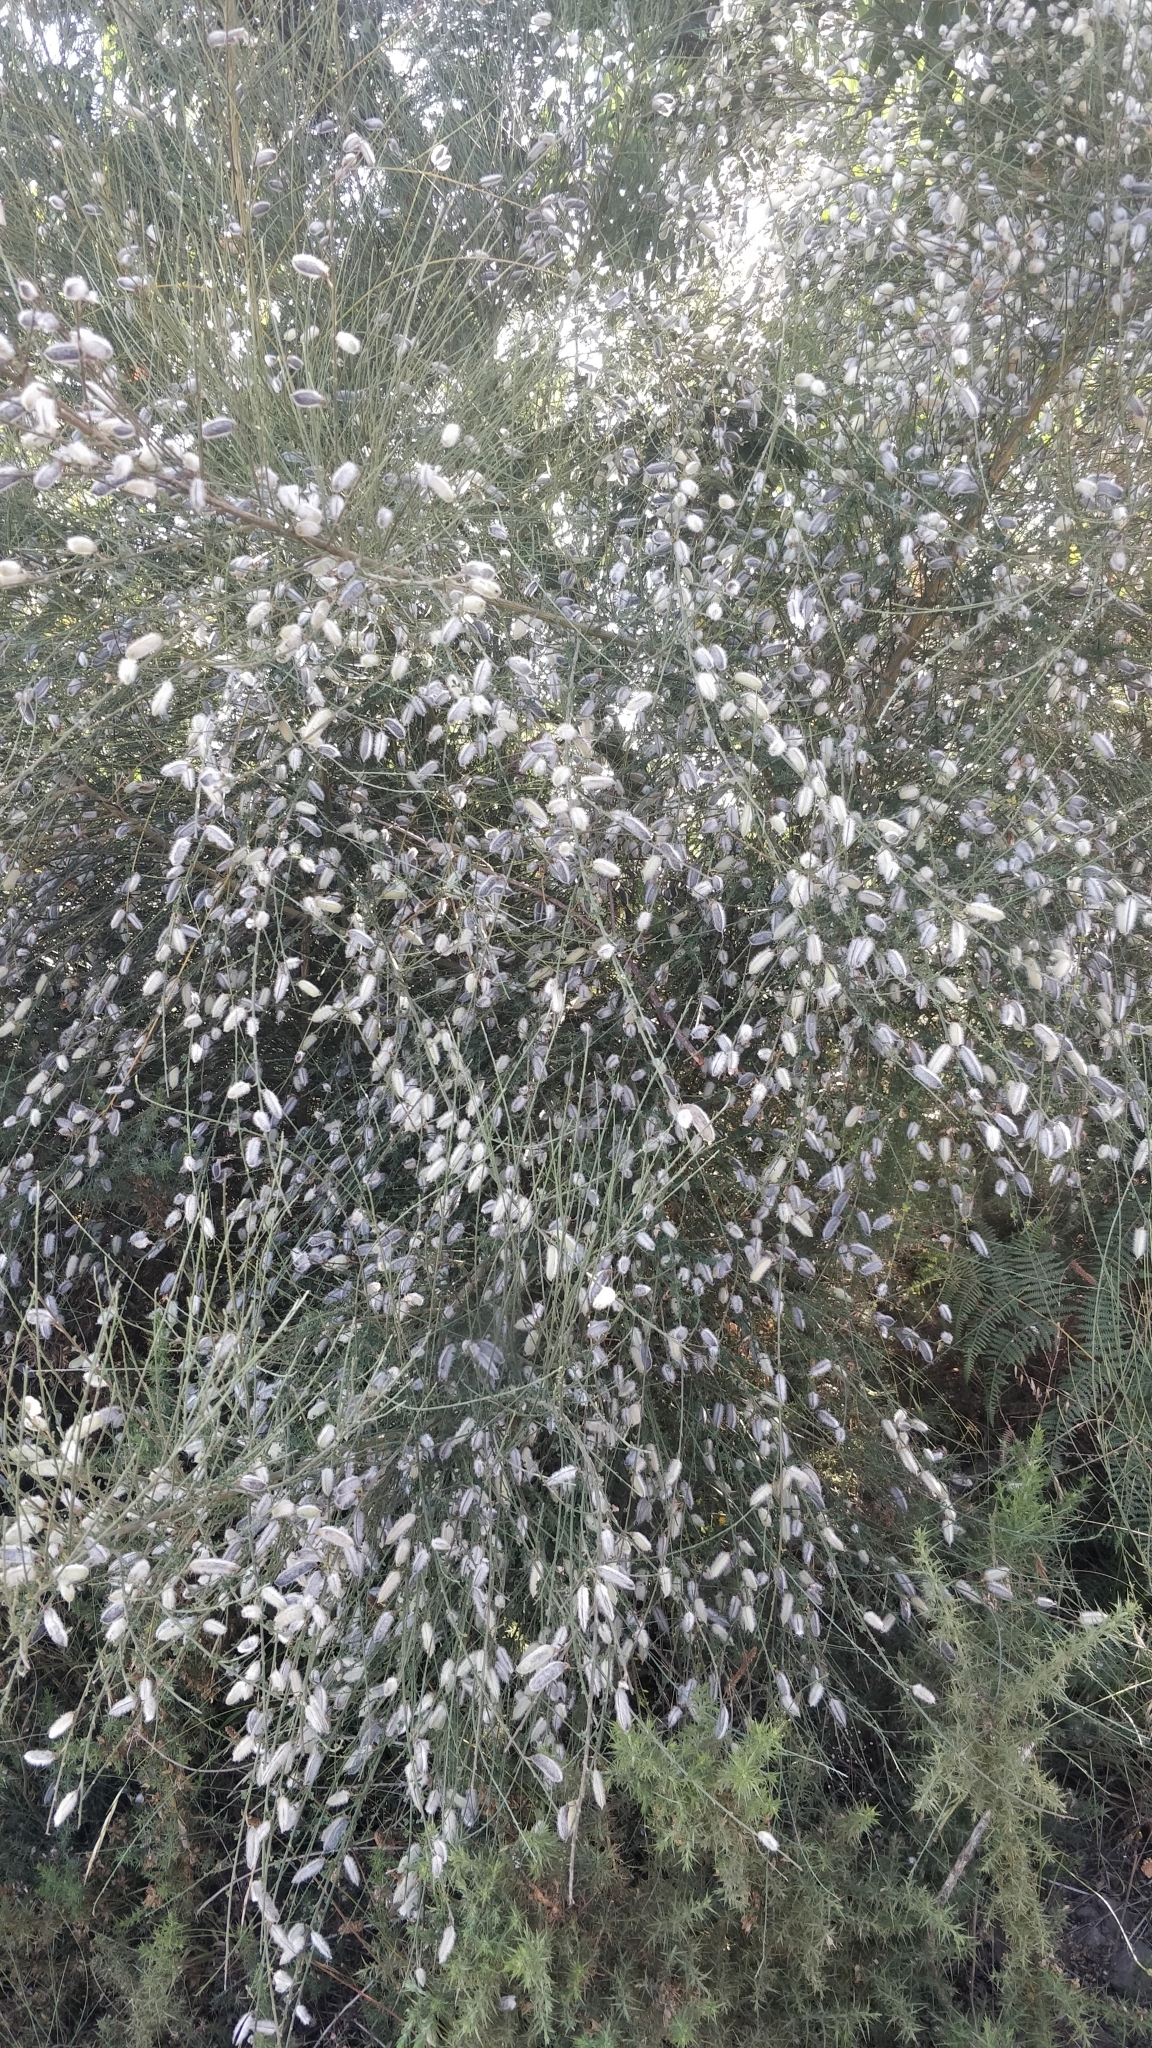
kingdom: Plantae
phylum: Tracheophyta
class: Magnoliopsida
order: Fabales
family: Fabaceae
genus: Cytisus
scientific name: Cytisus striatus
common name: Hairy-fruited broom
